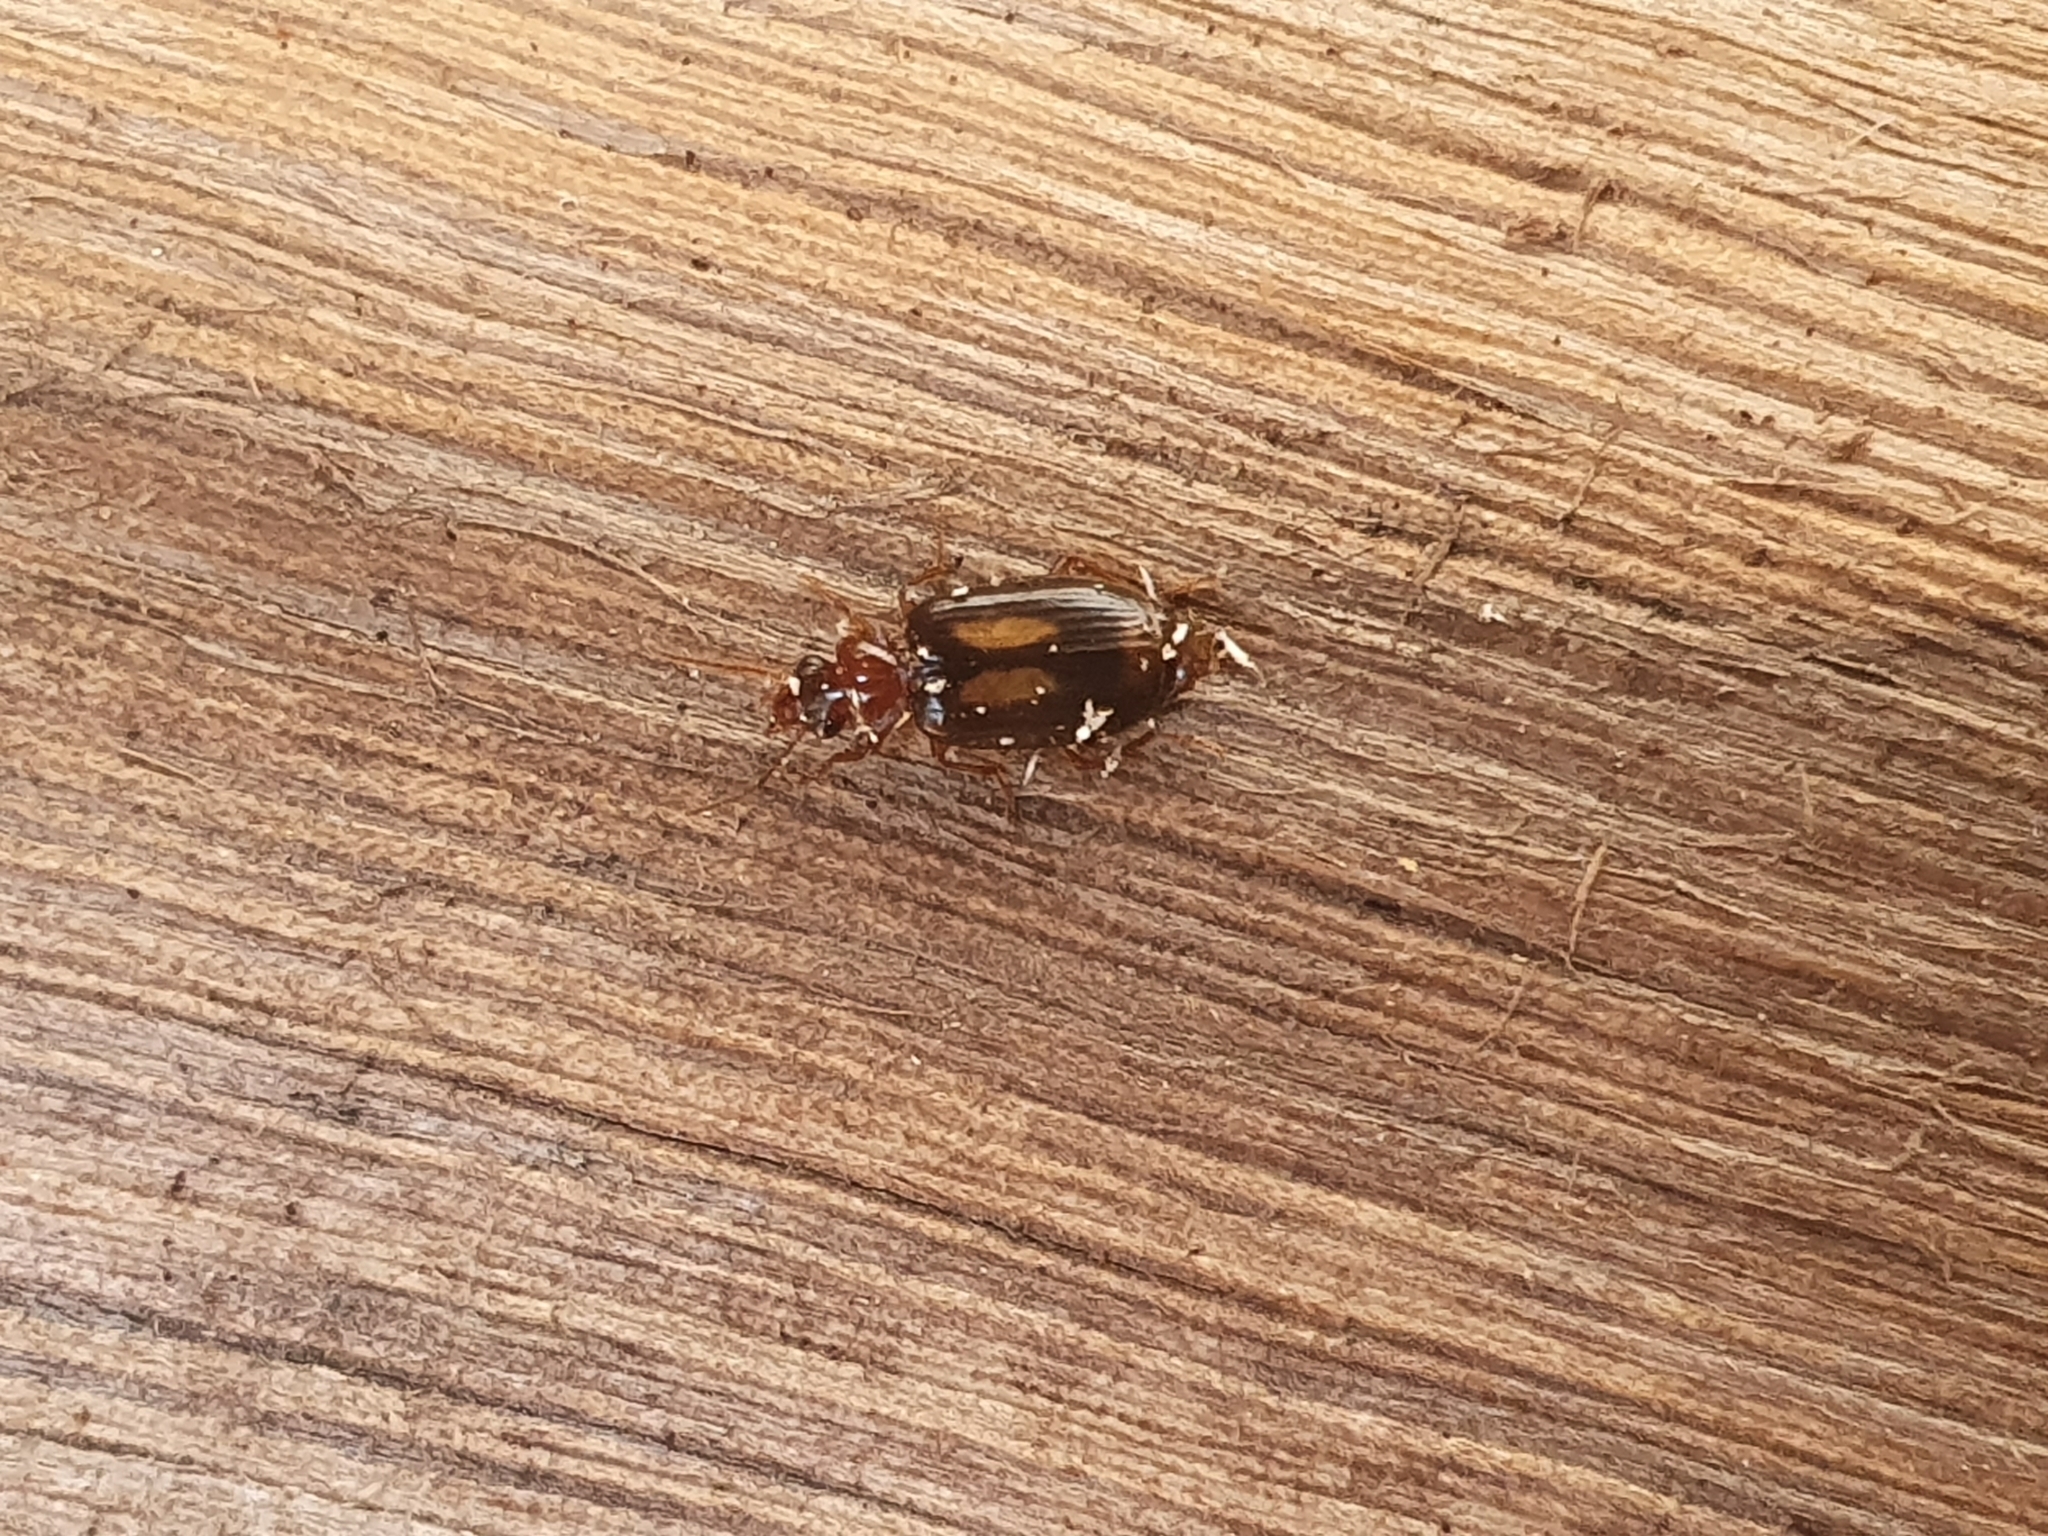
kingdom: Animalia
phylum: Arthropoda
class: Insecta
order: Coleoptera
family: Carabidae
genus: Agonocheila
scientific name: Agonocheila antipodum
